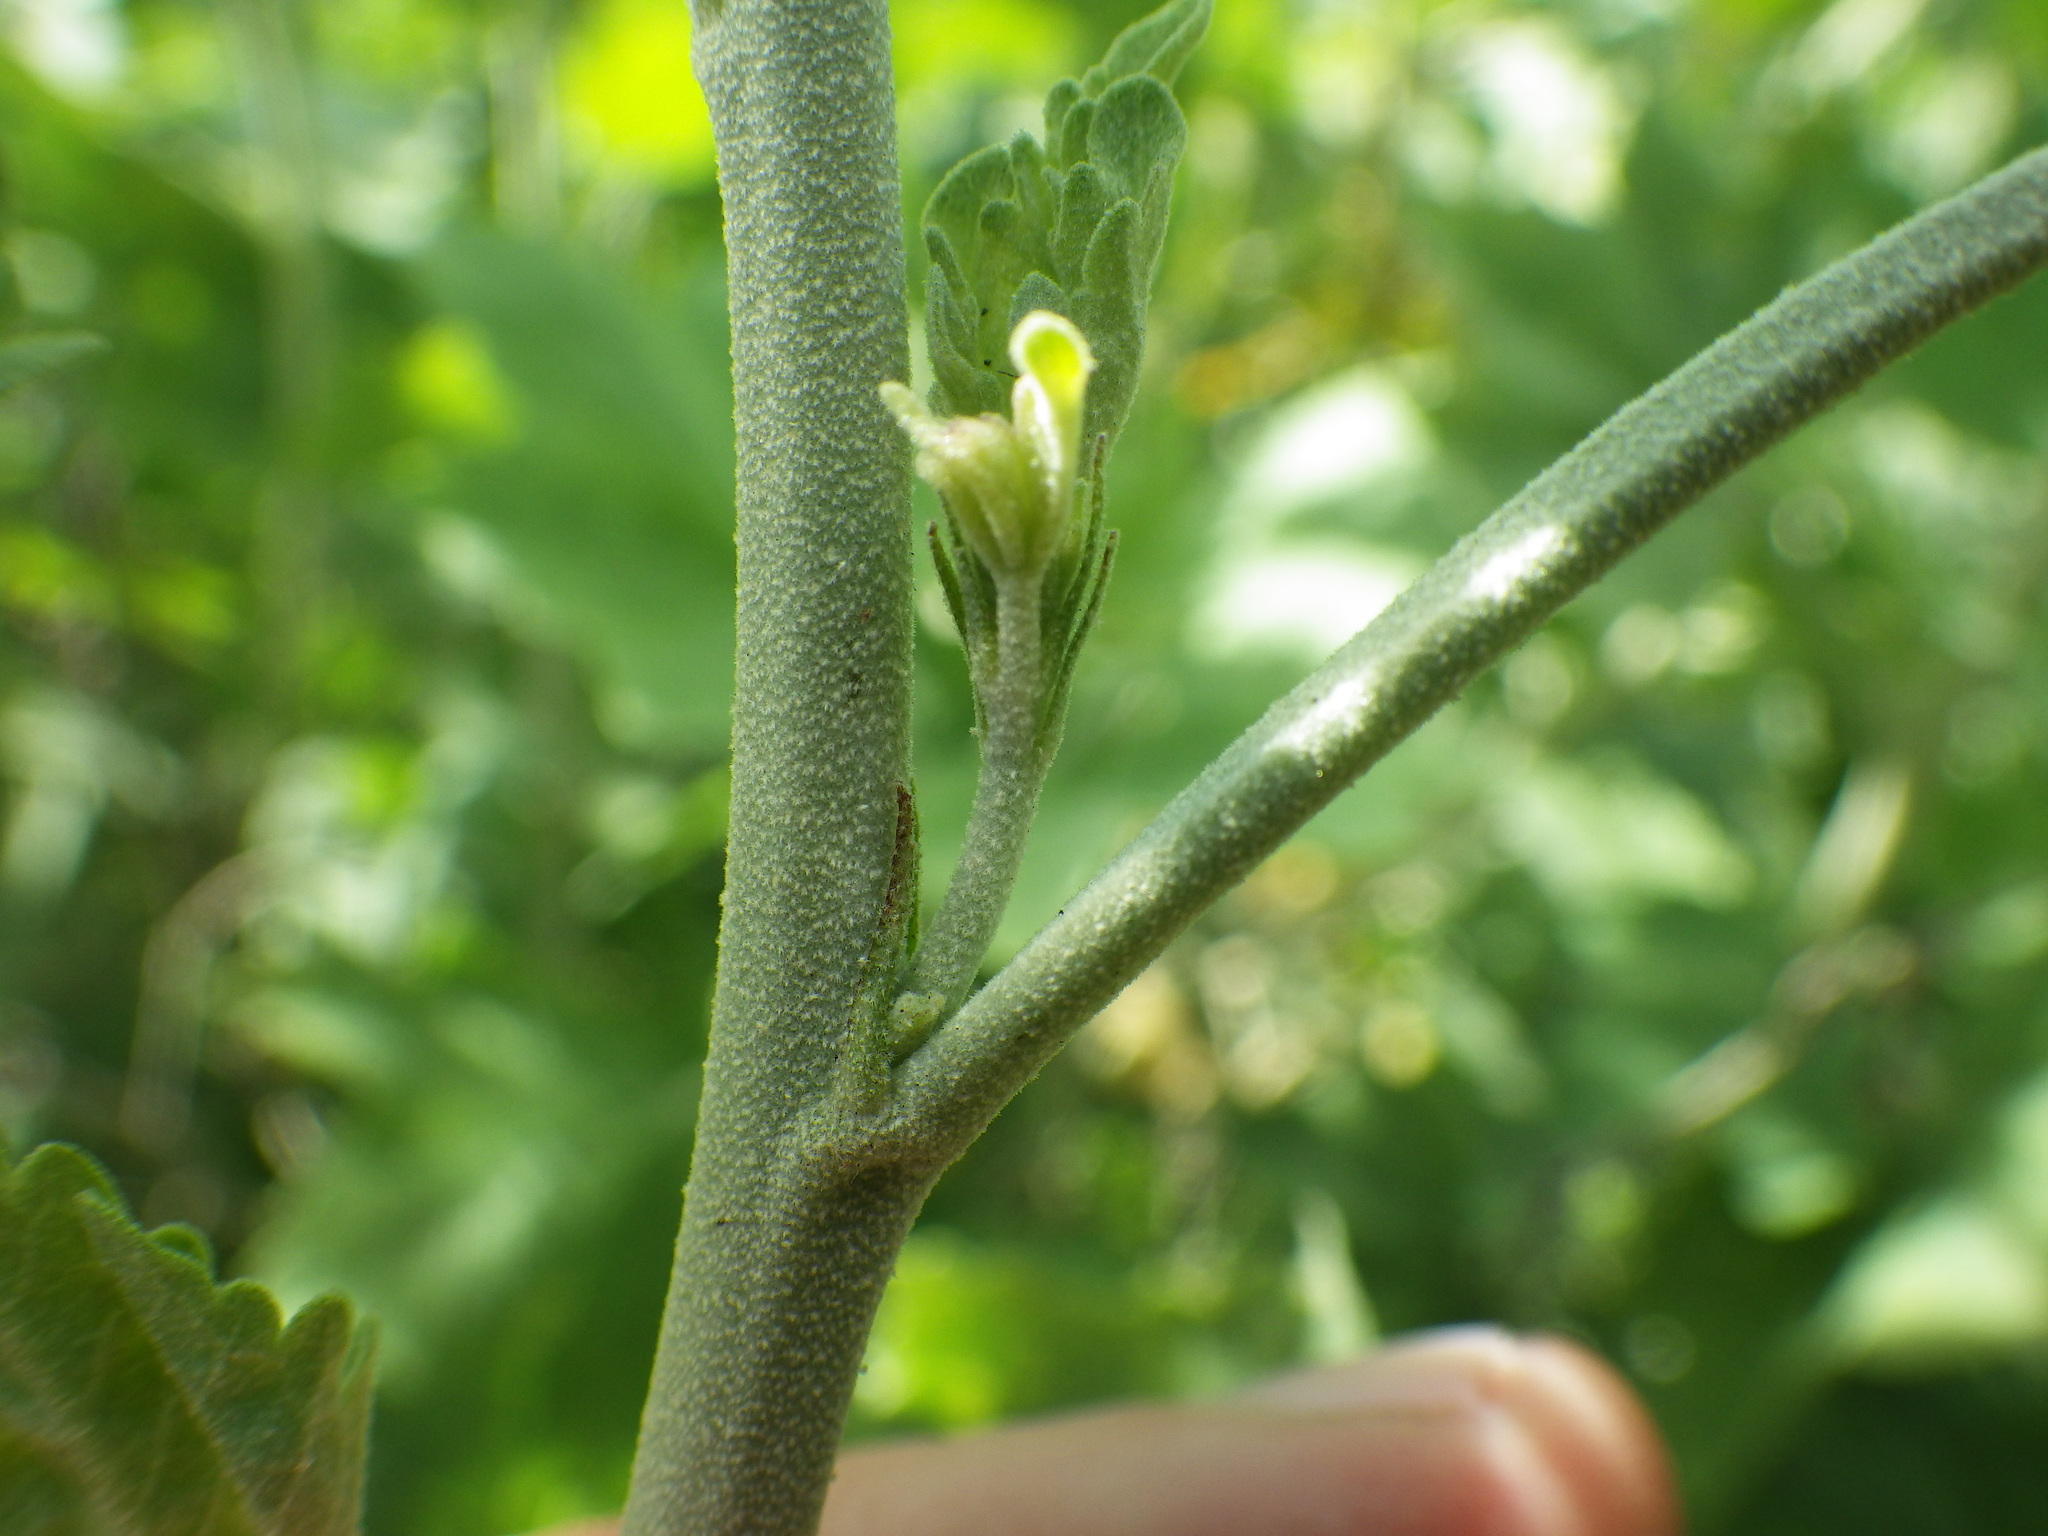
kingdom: Plantae
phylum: Tracheophyta
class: Magnoliopsida
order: Malvales
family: Malvaceae
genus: Malacothamnus
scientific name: Malacothamnus fasciculatus
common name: Sant cruz island bush-mallow
